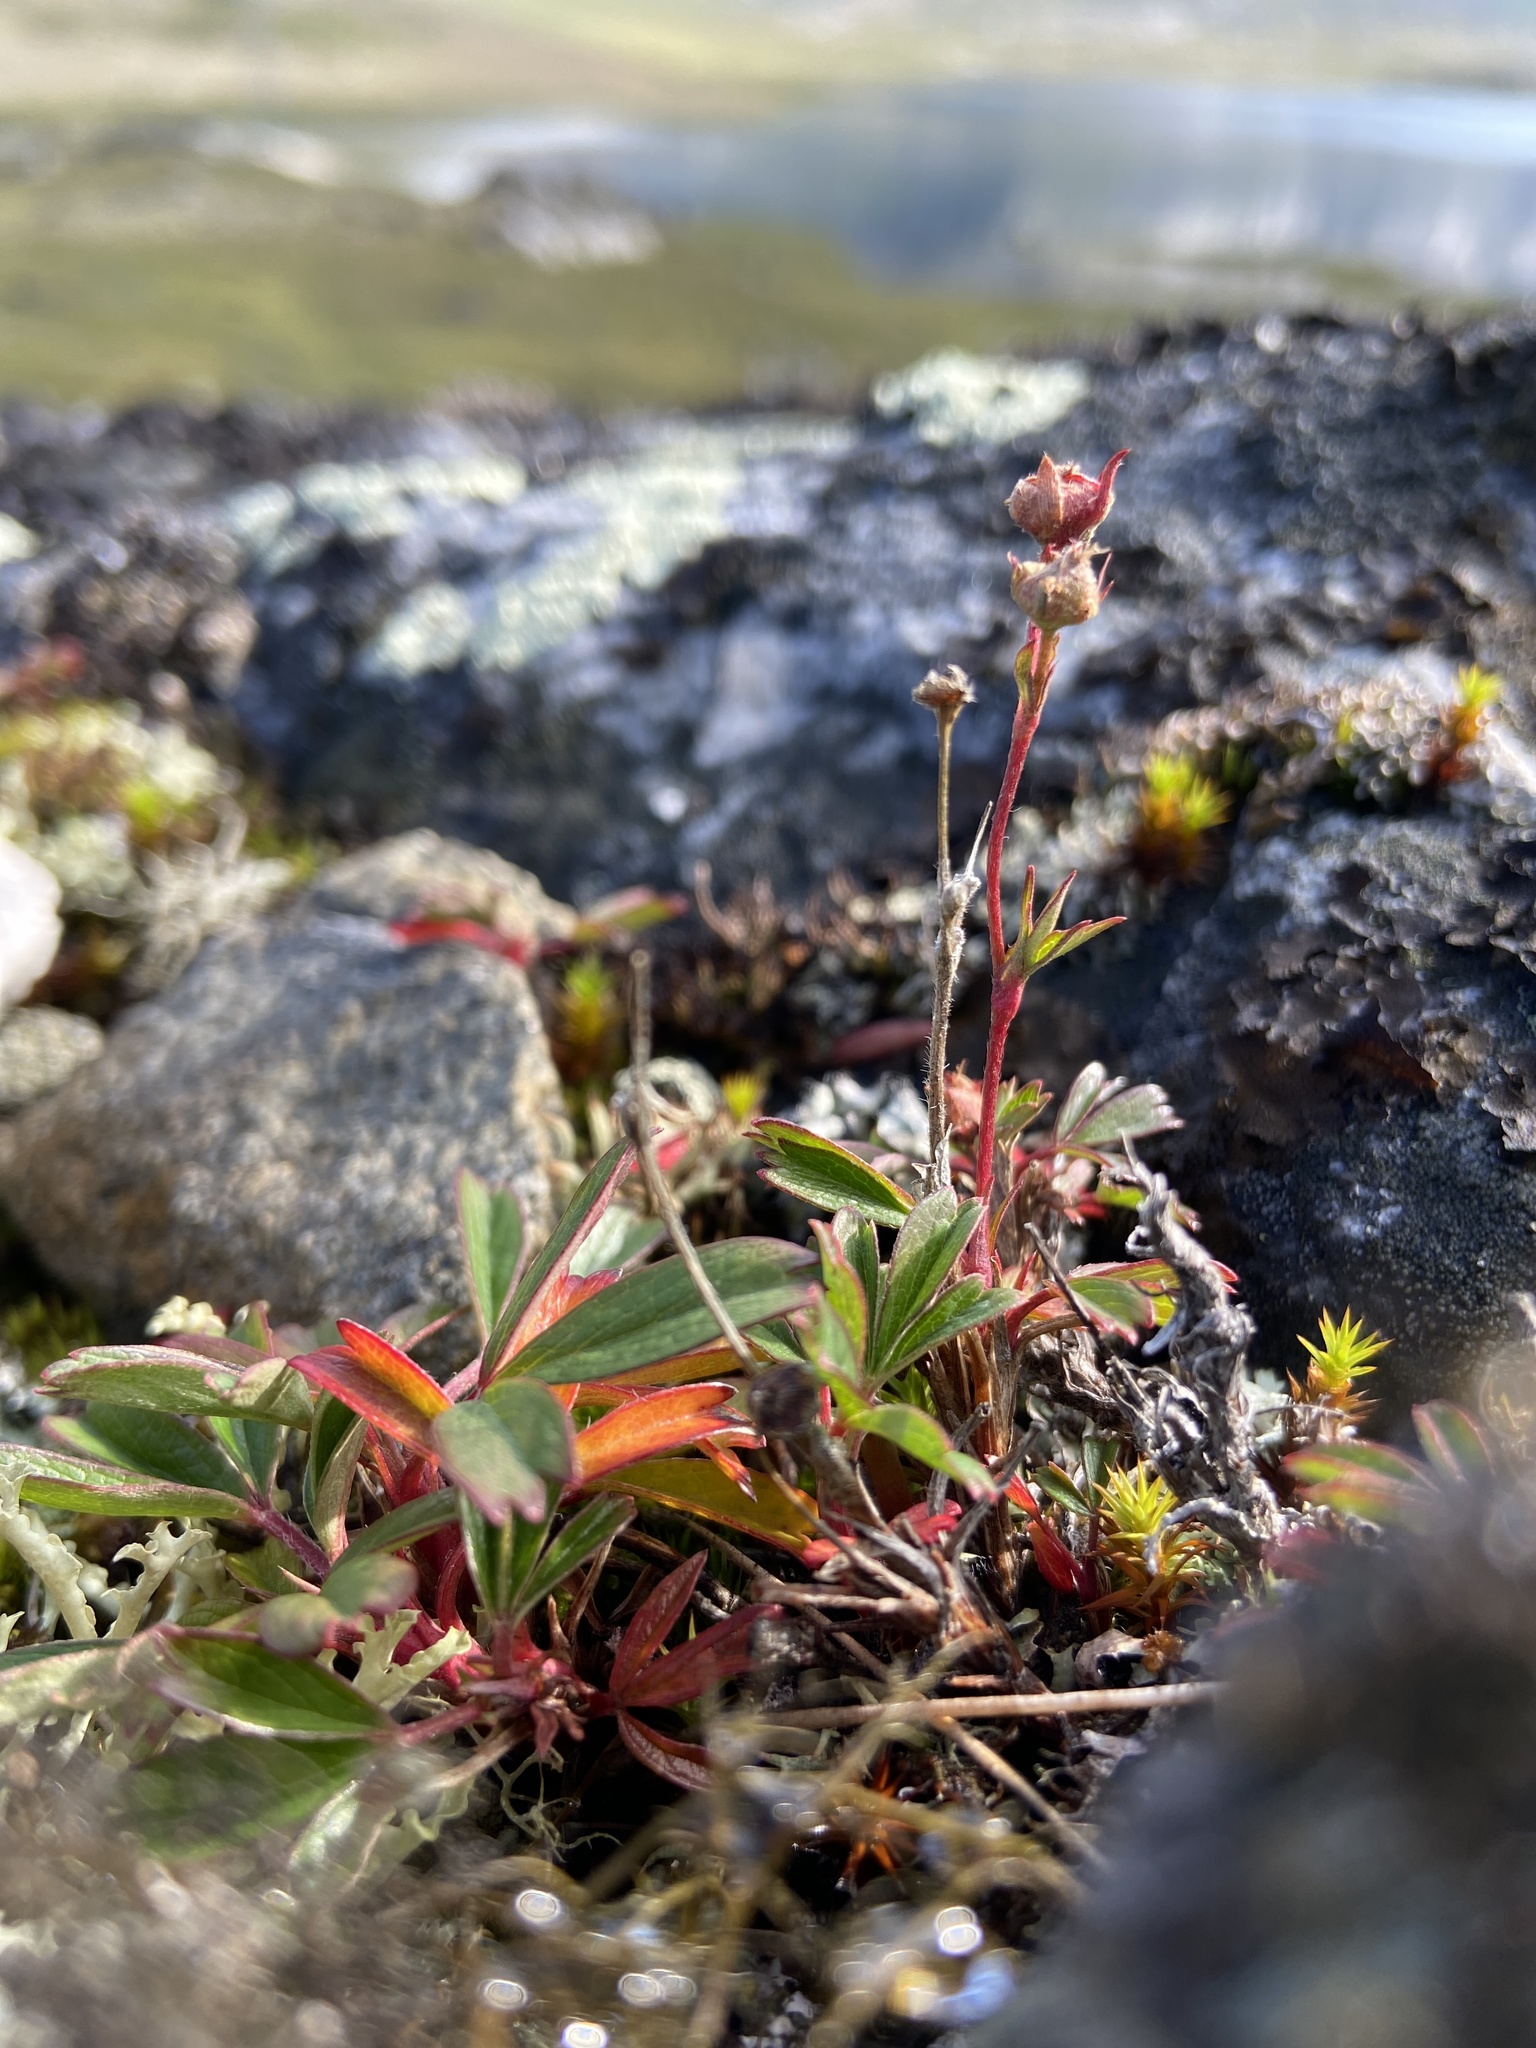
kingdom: Plantae
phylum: Tracheophyta
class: Magnoliopsida
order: Rosales
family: Rosaceae
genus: Sibbaldia
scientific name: Sibbaldia tridentata
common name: Three-toothed cinquefoil
